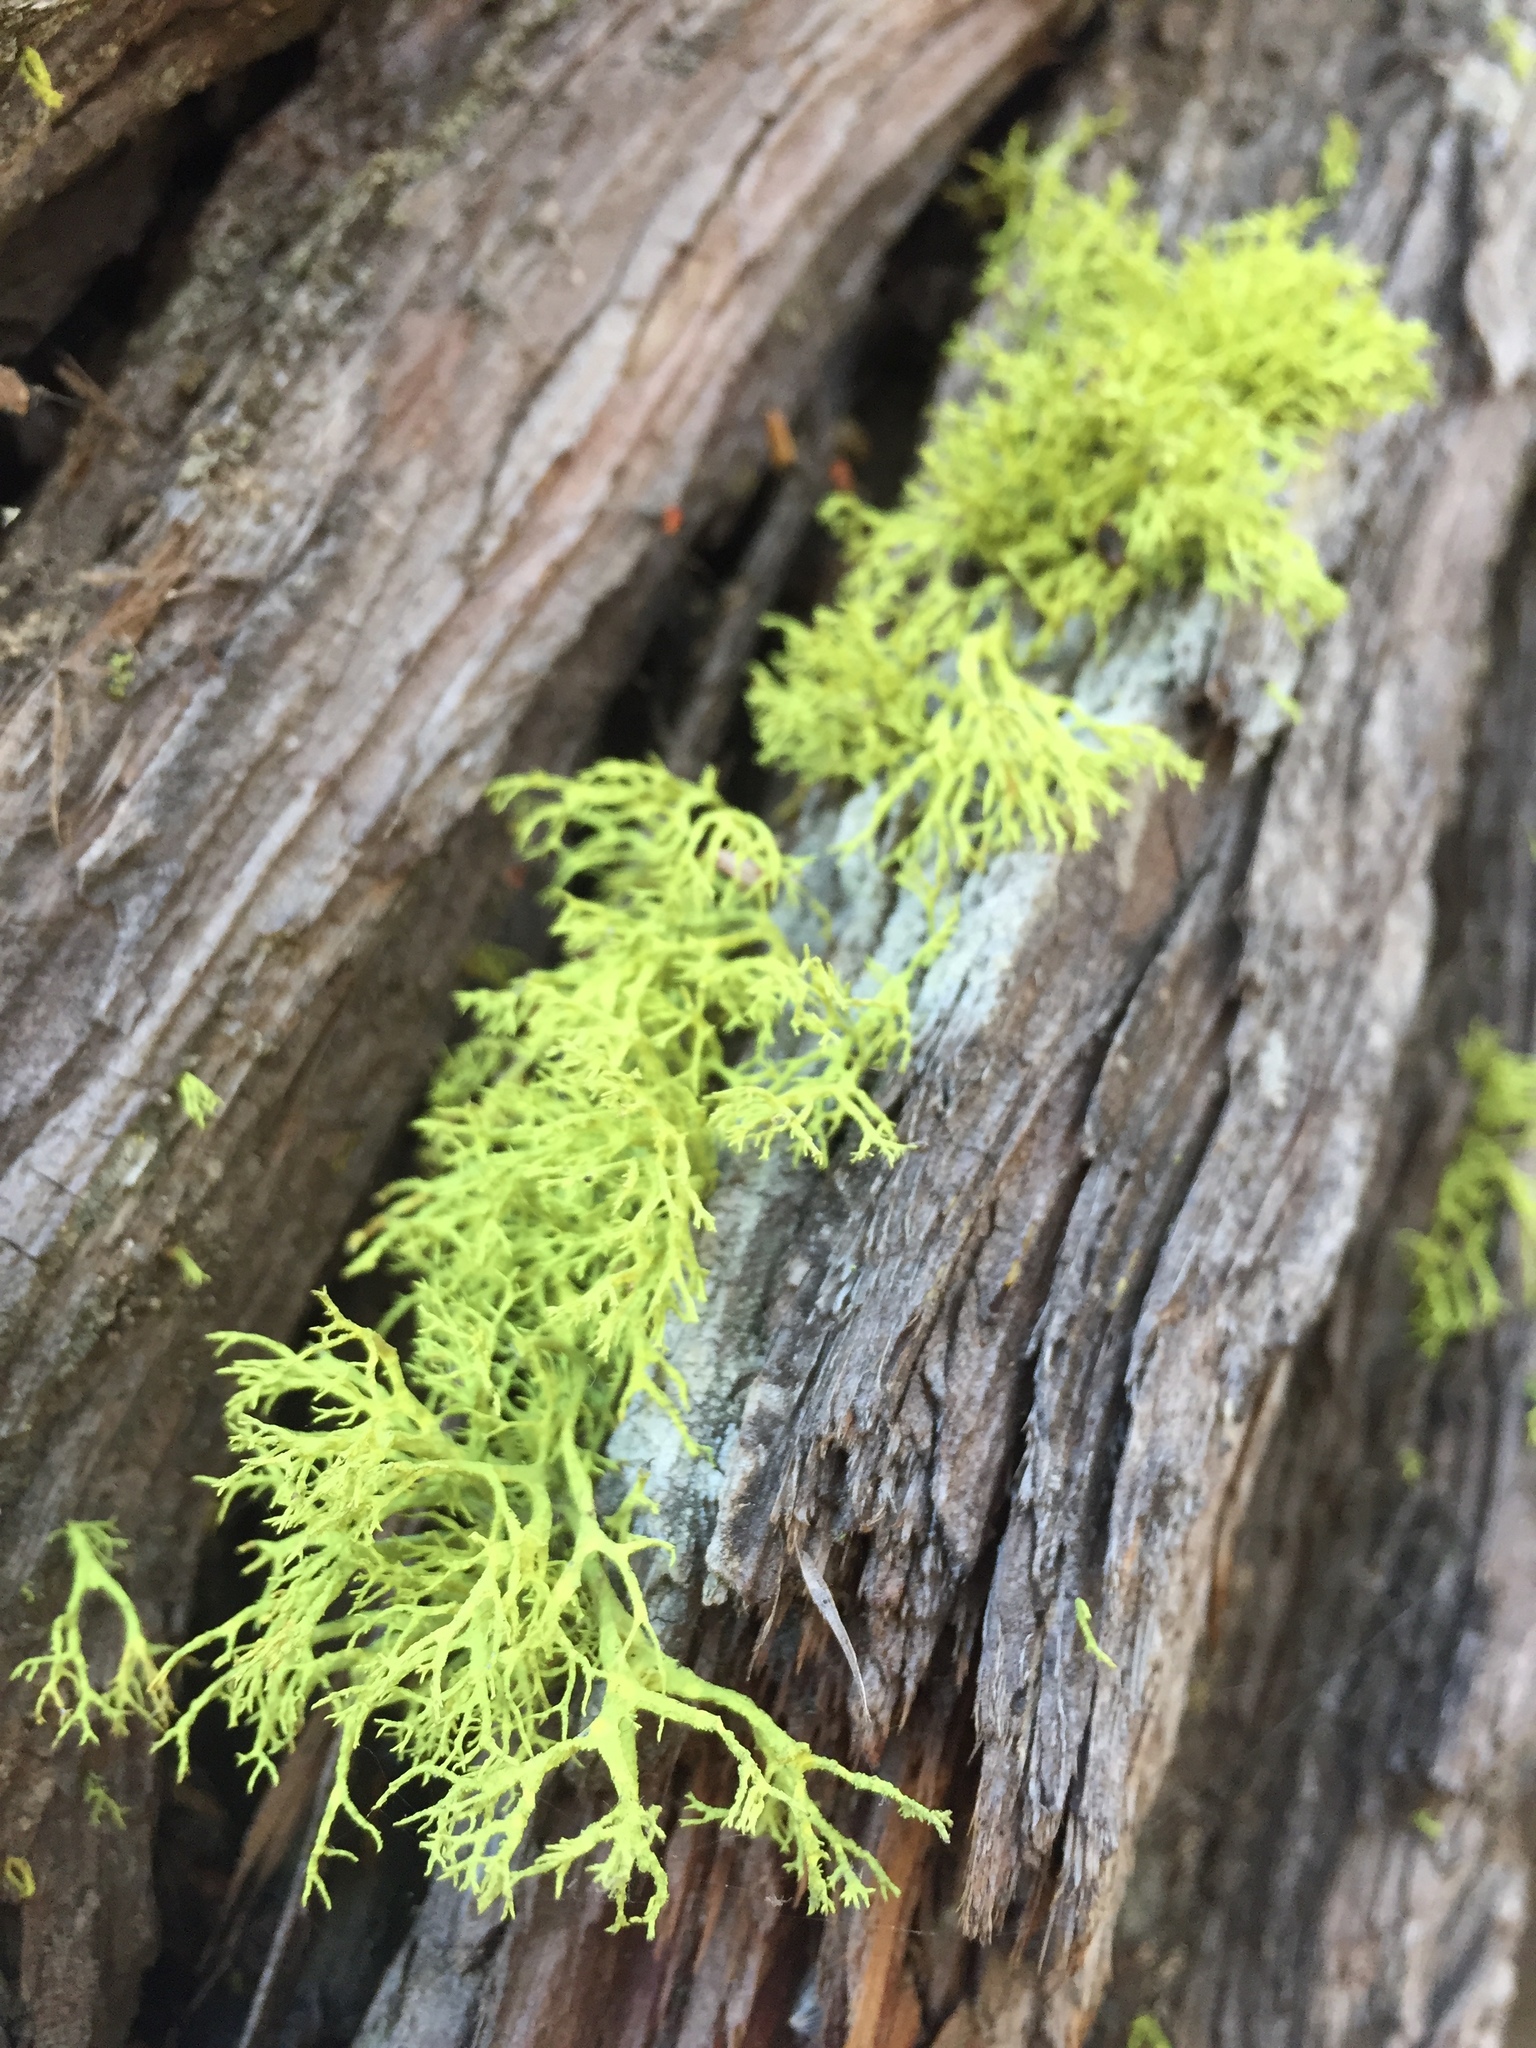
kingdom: Fungi
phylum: Ascomycota
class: Lecanoromycetes
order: Lecanorales
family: Parmeliaceae
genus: Letharia
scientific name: Letharia vulpina
